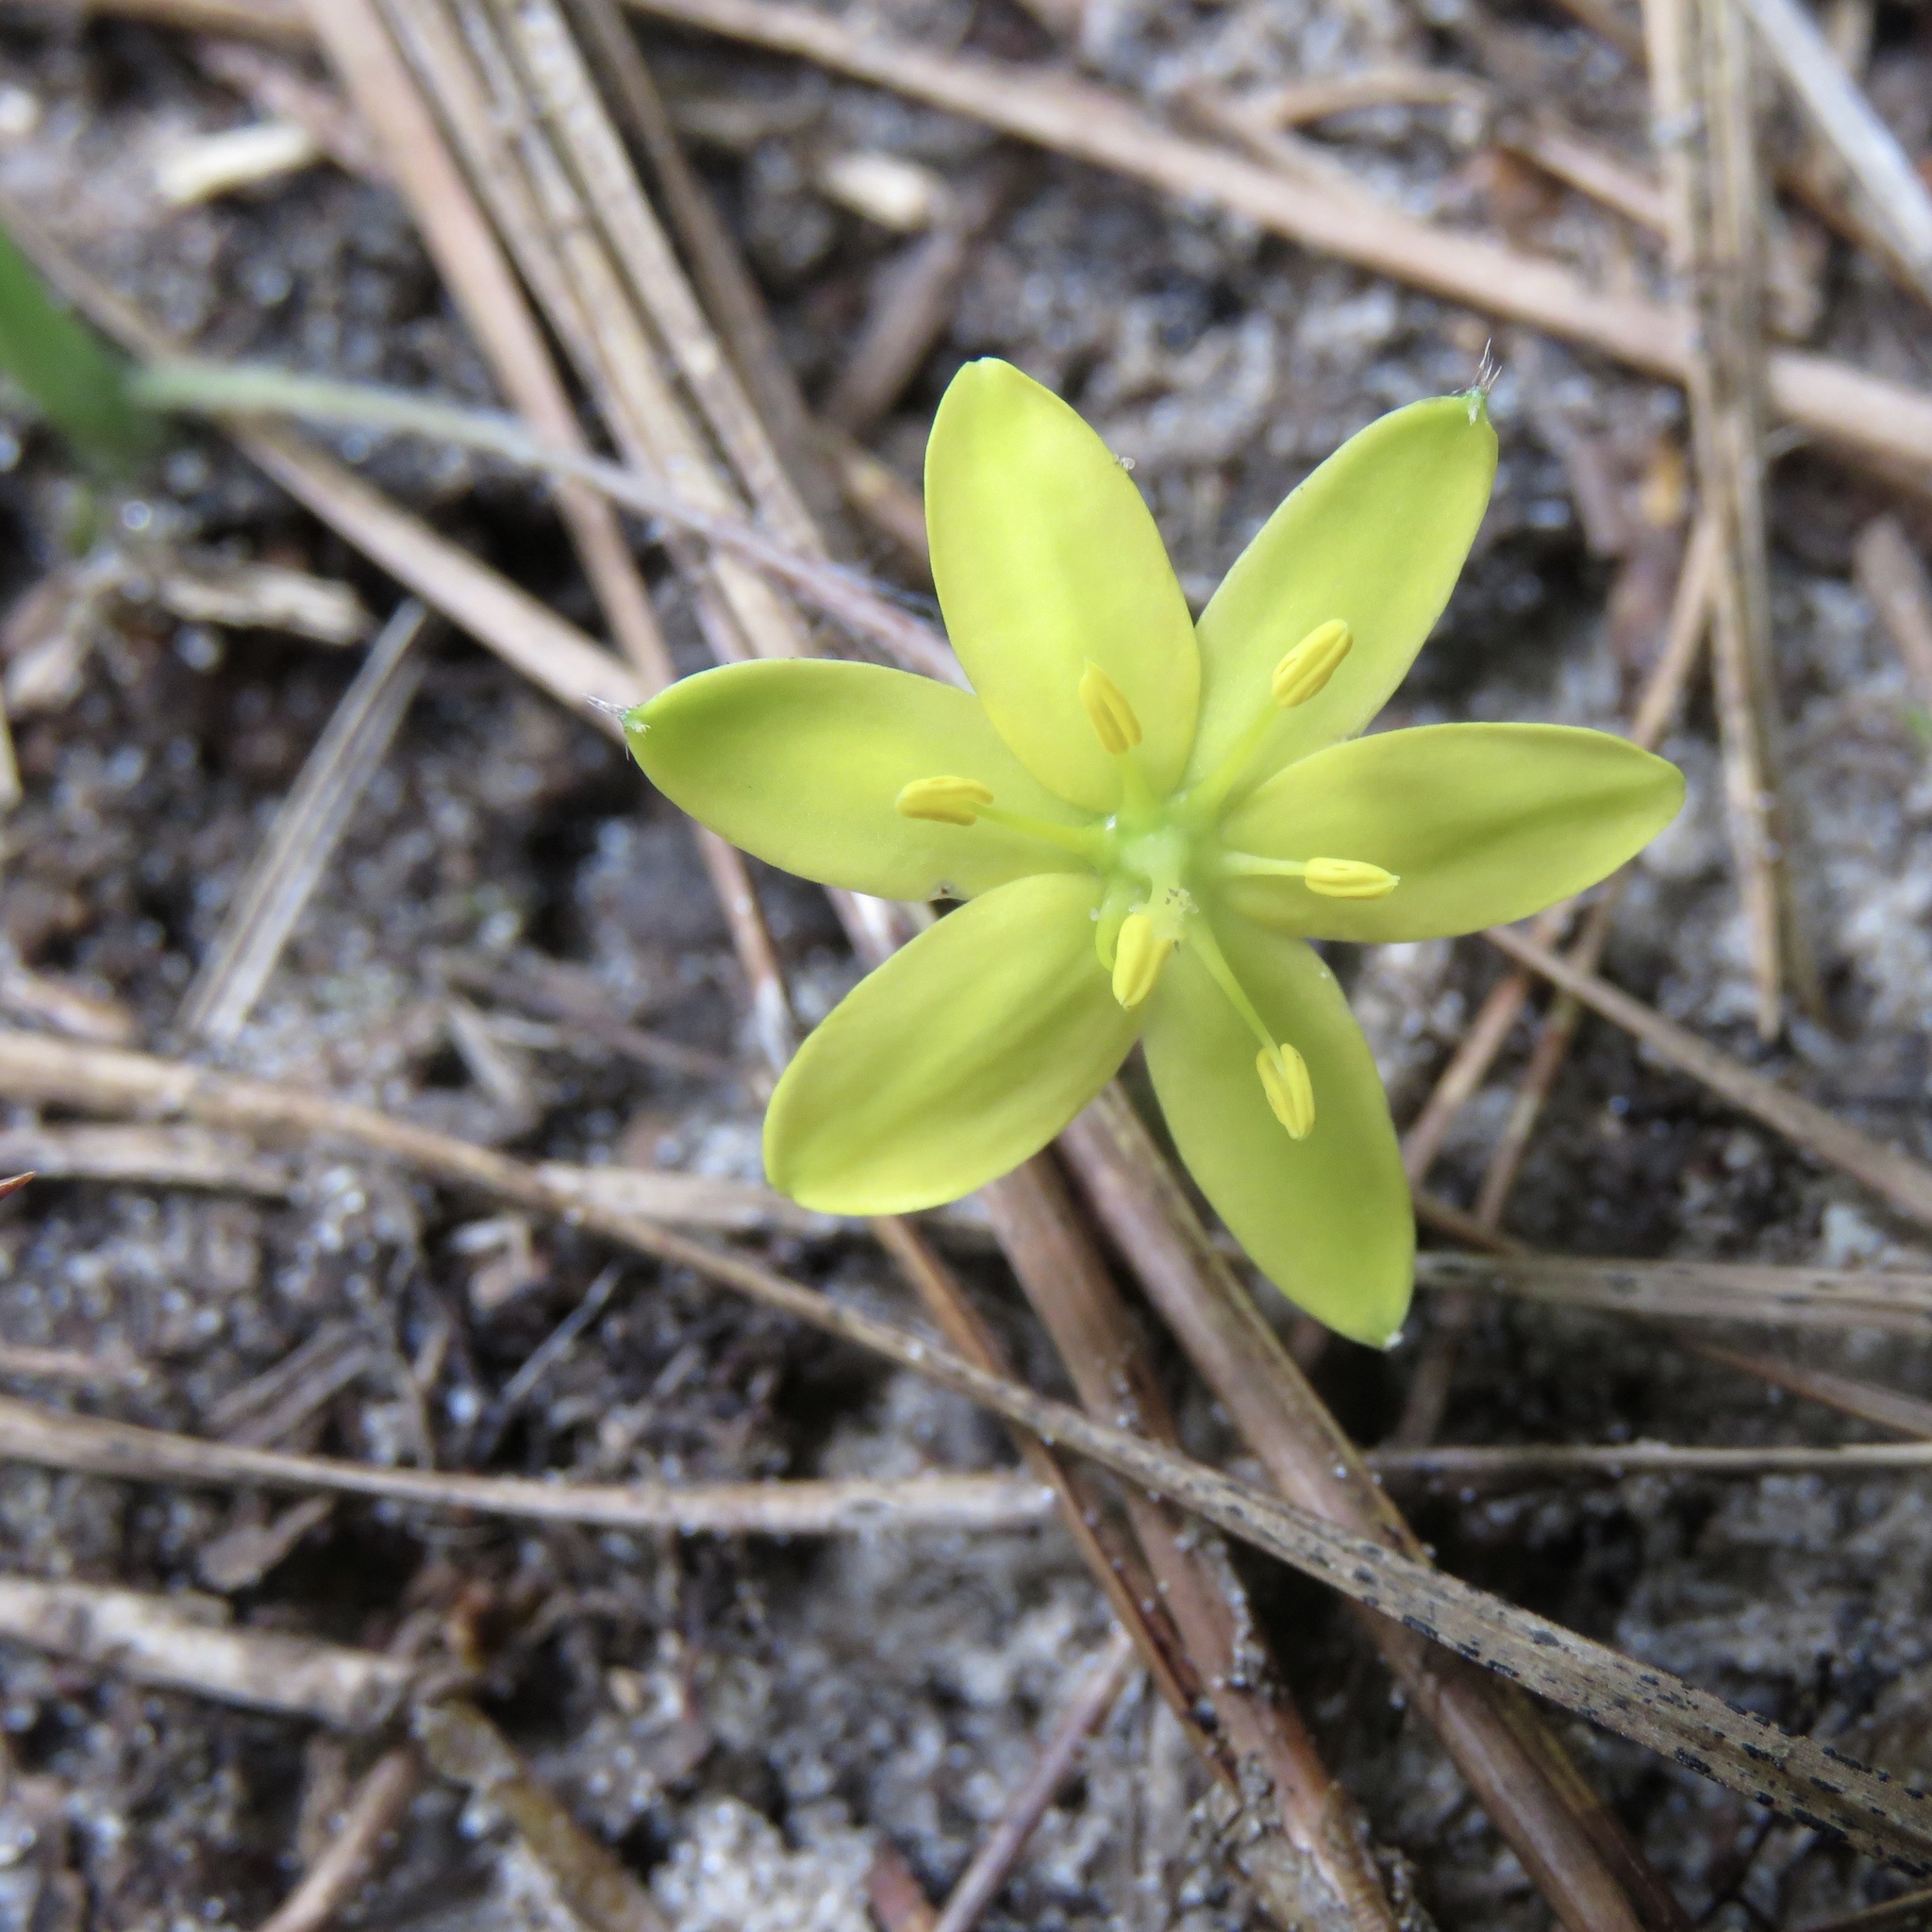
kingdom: Plantae
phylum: Tracheophyta
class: Liliopsida
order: Asparagales
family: Hypoxidaceae
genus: Hypoxis
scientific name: Hypoxis hirsuta
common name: Common goldstar
